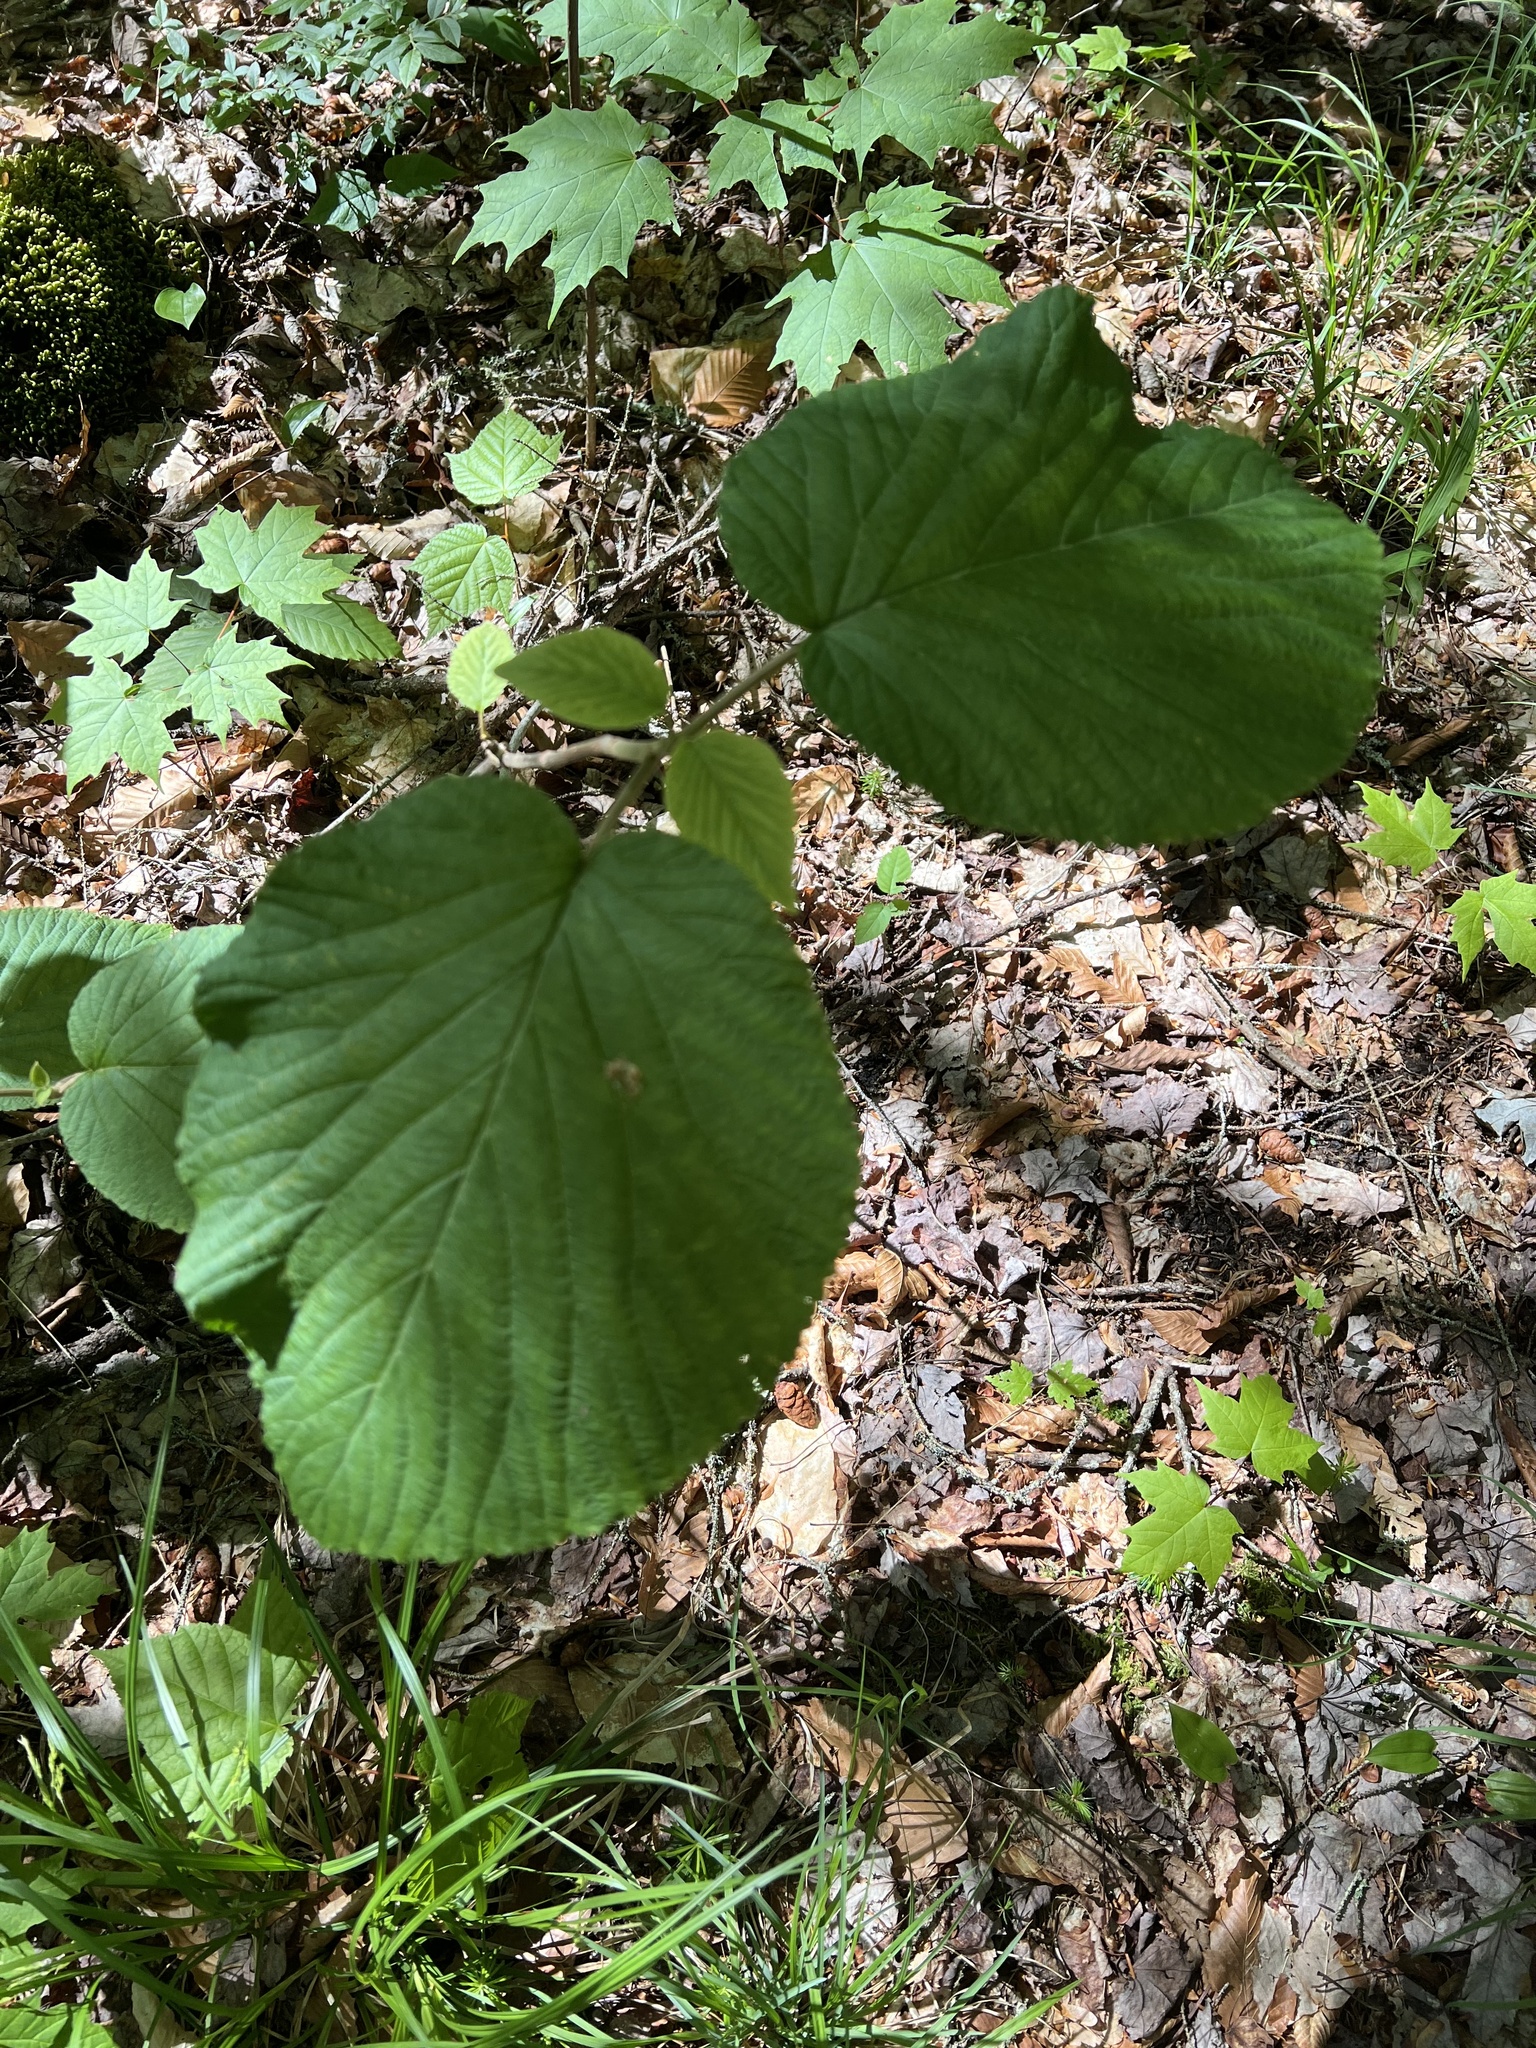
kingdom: Plantae
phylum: Tracheophyta
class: Magnoliopsida
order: Dipsacales
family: Viburnaceae
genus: Viburnum
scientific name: Viburnum lantanoides
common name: Hobblebush
